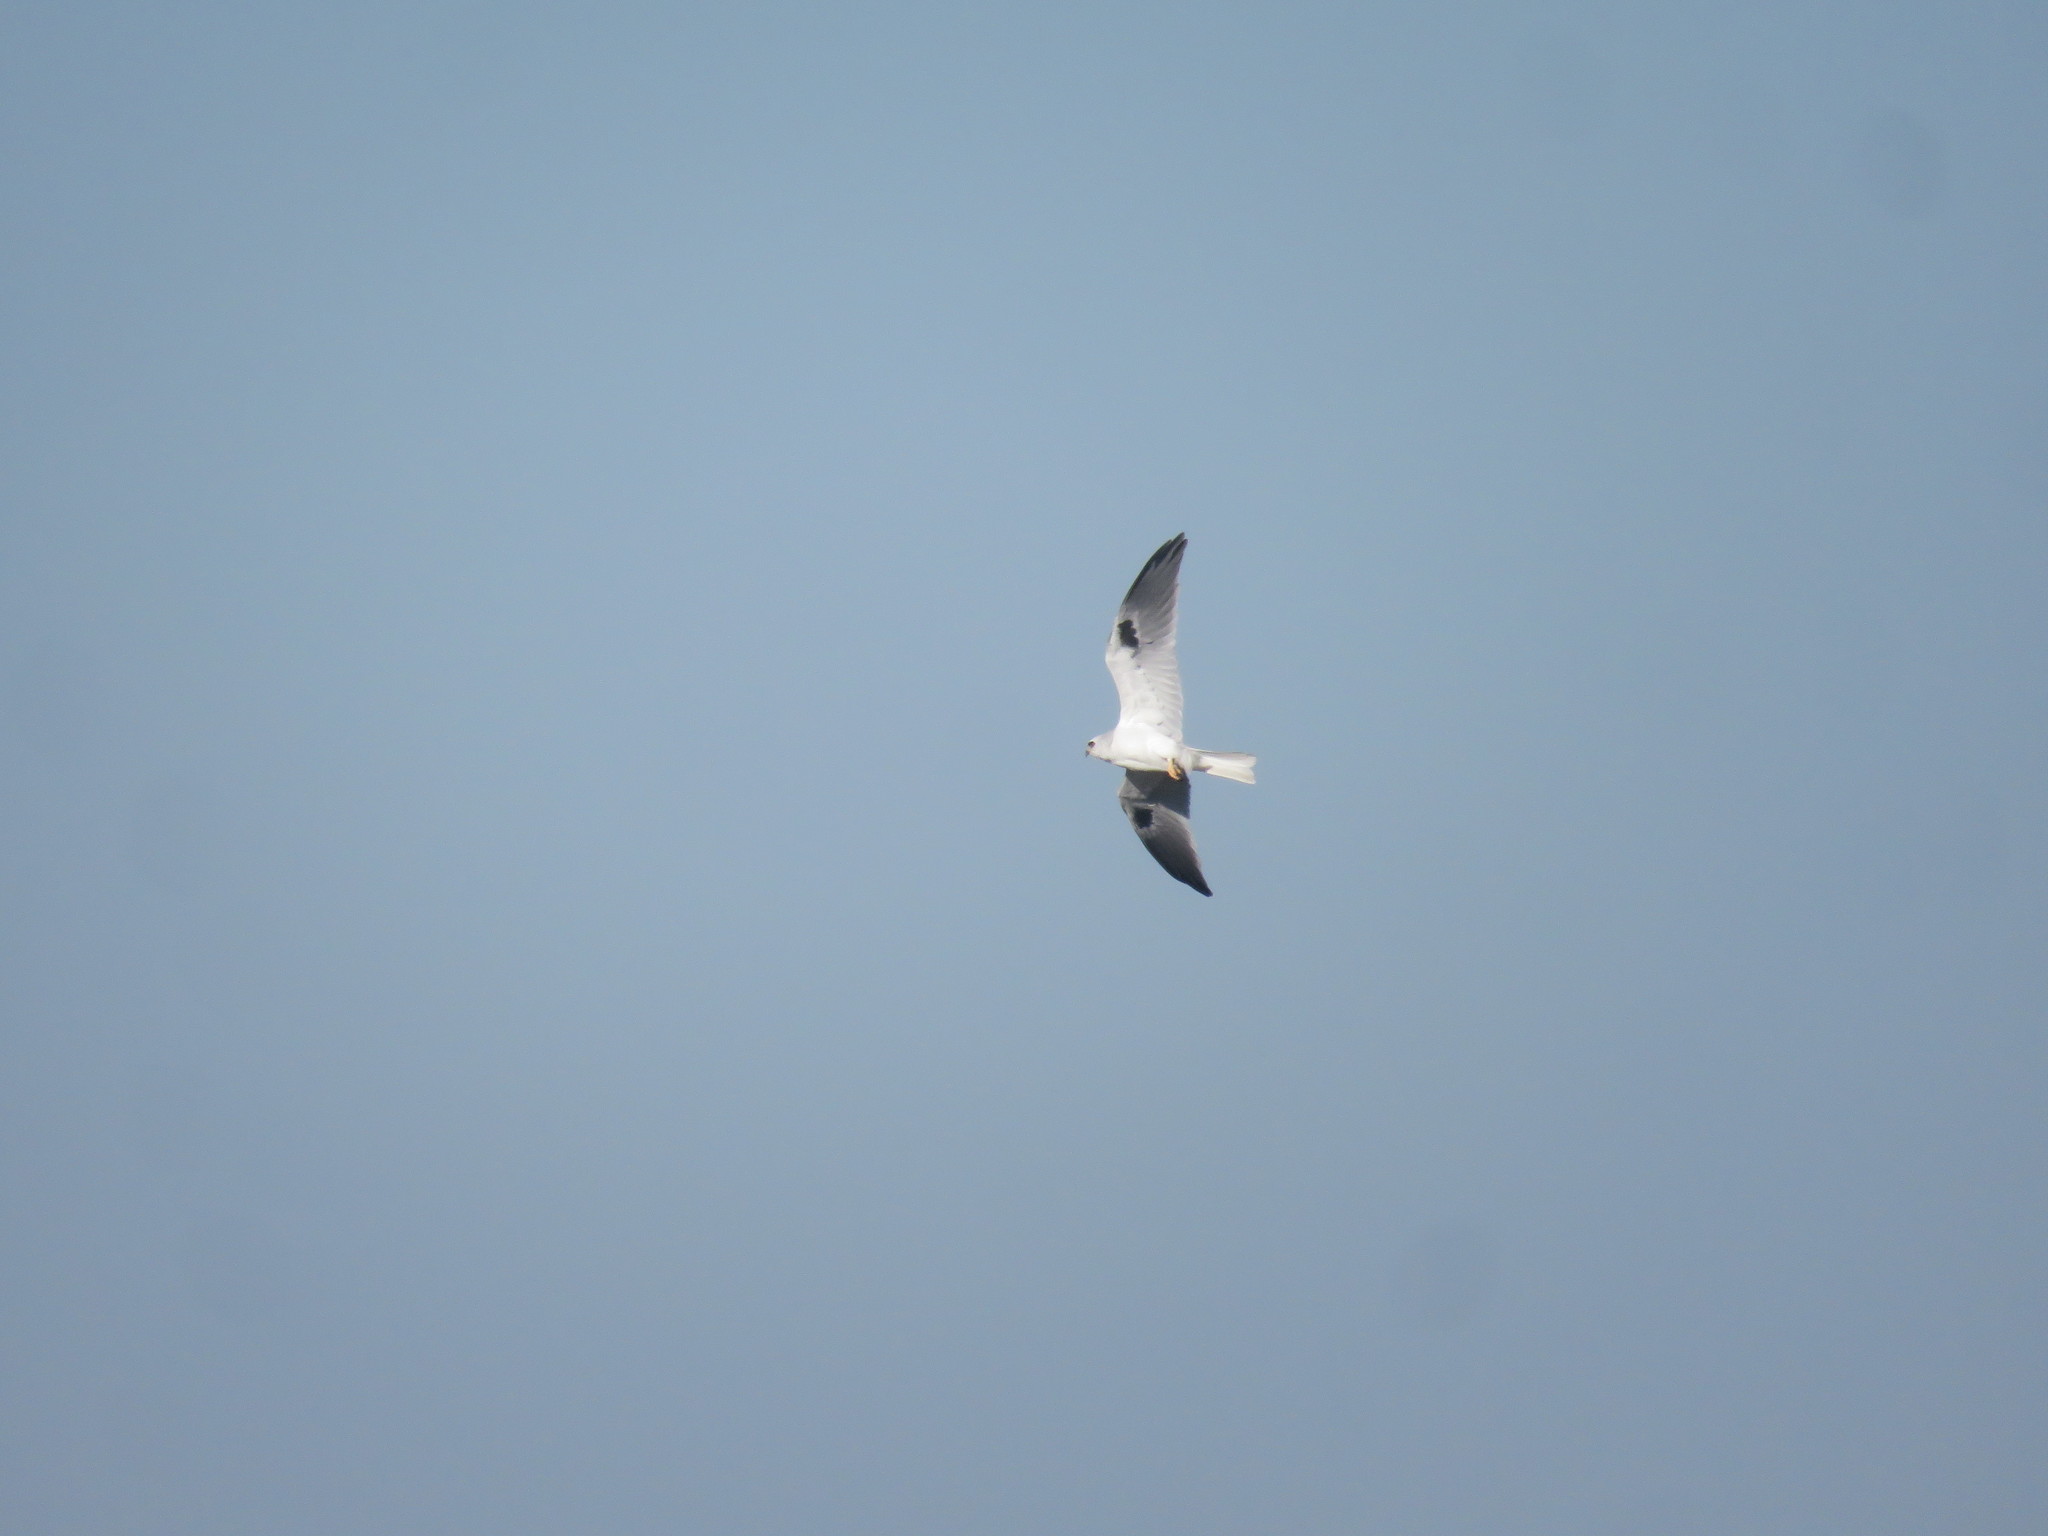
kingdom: Animalia
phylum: Chordata
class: Aves
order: Accipitriformes
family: Accipitridae
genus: Elanus
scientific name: Elanus leucurus
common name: White-tailed kite
